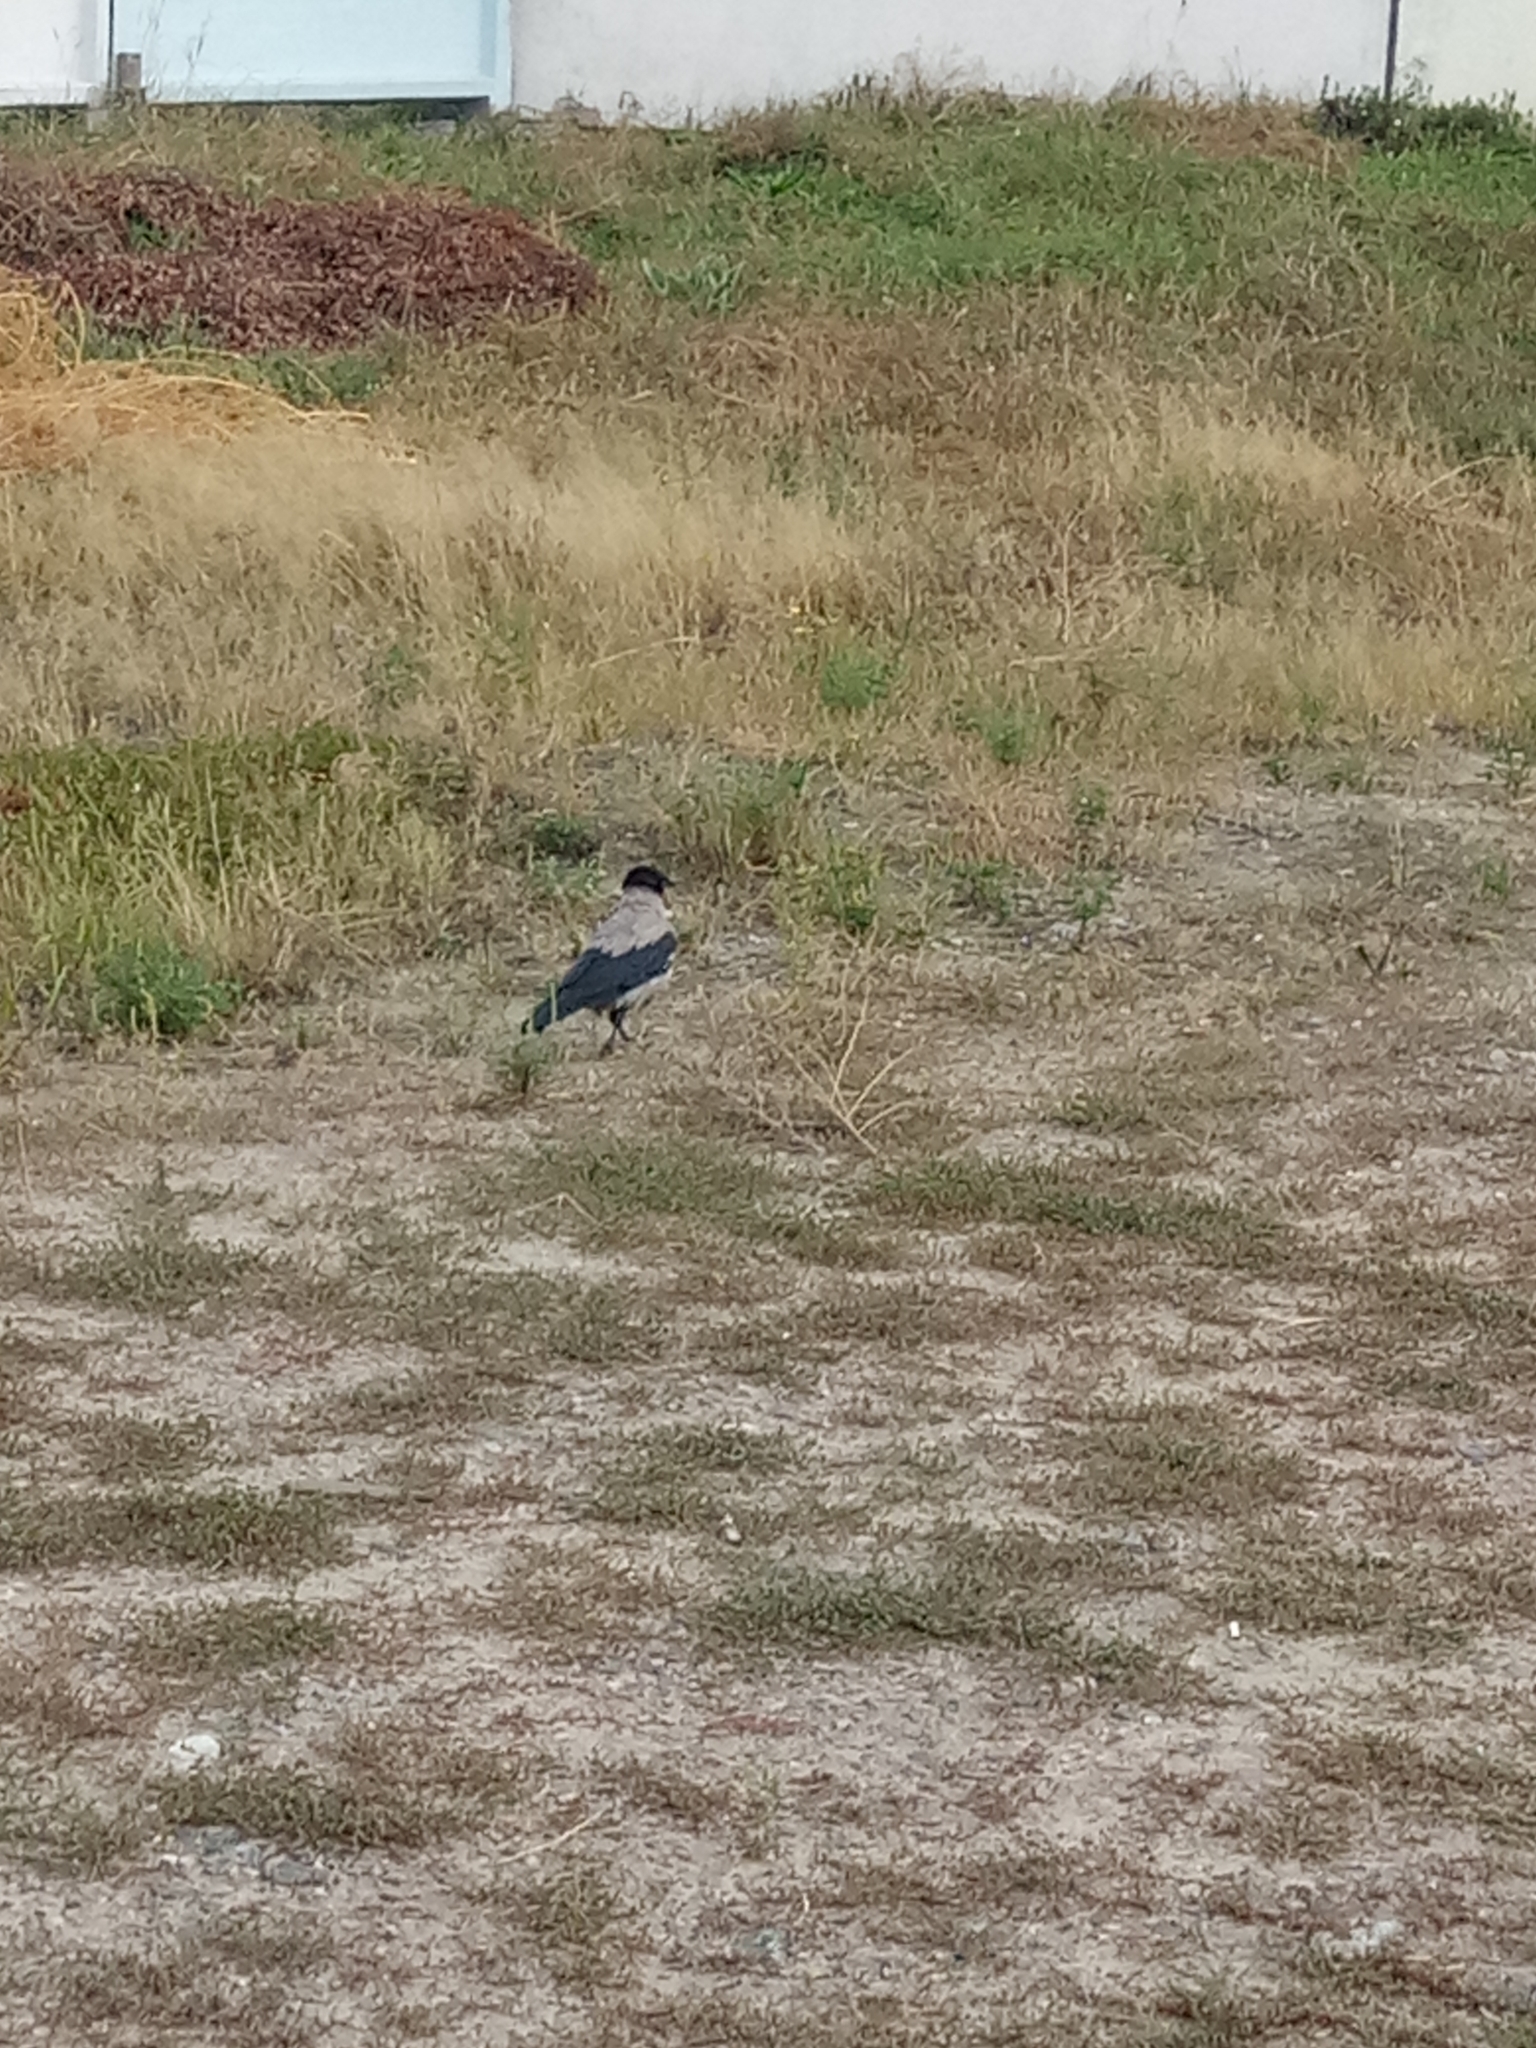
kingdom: Animalia
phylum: Chordata
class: Aves
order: Passeriformes
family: Corvidae
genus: Corvus
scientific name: Corvus cornix
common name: Hooded crow
